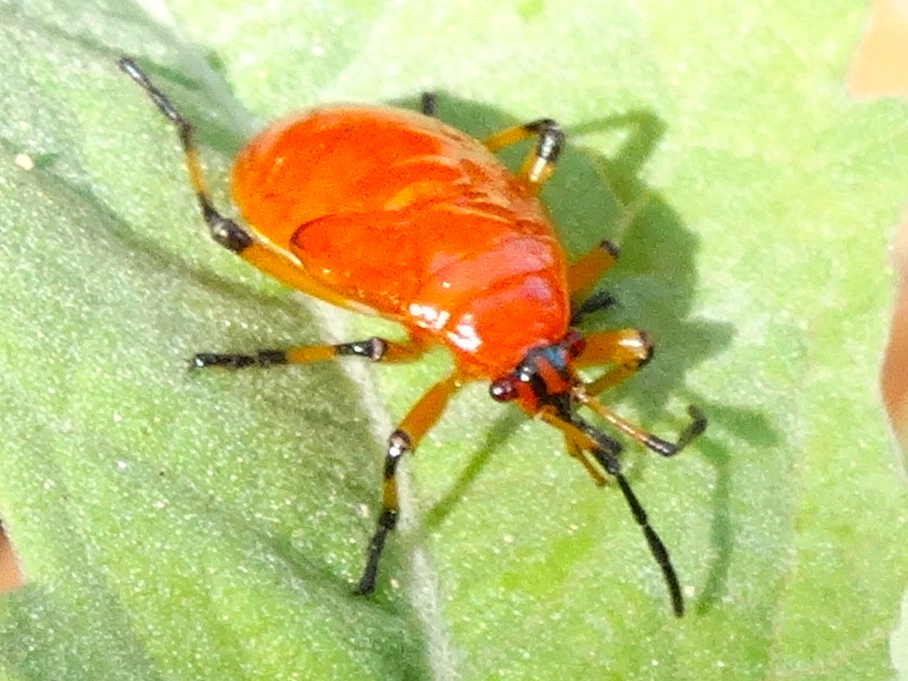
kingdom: Animalia
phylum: Arthropoda
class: Insecta
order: Hemiptera
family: Largidae
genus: Largus
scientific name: Largus
